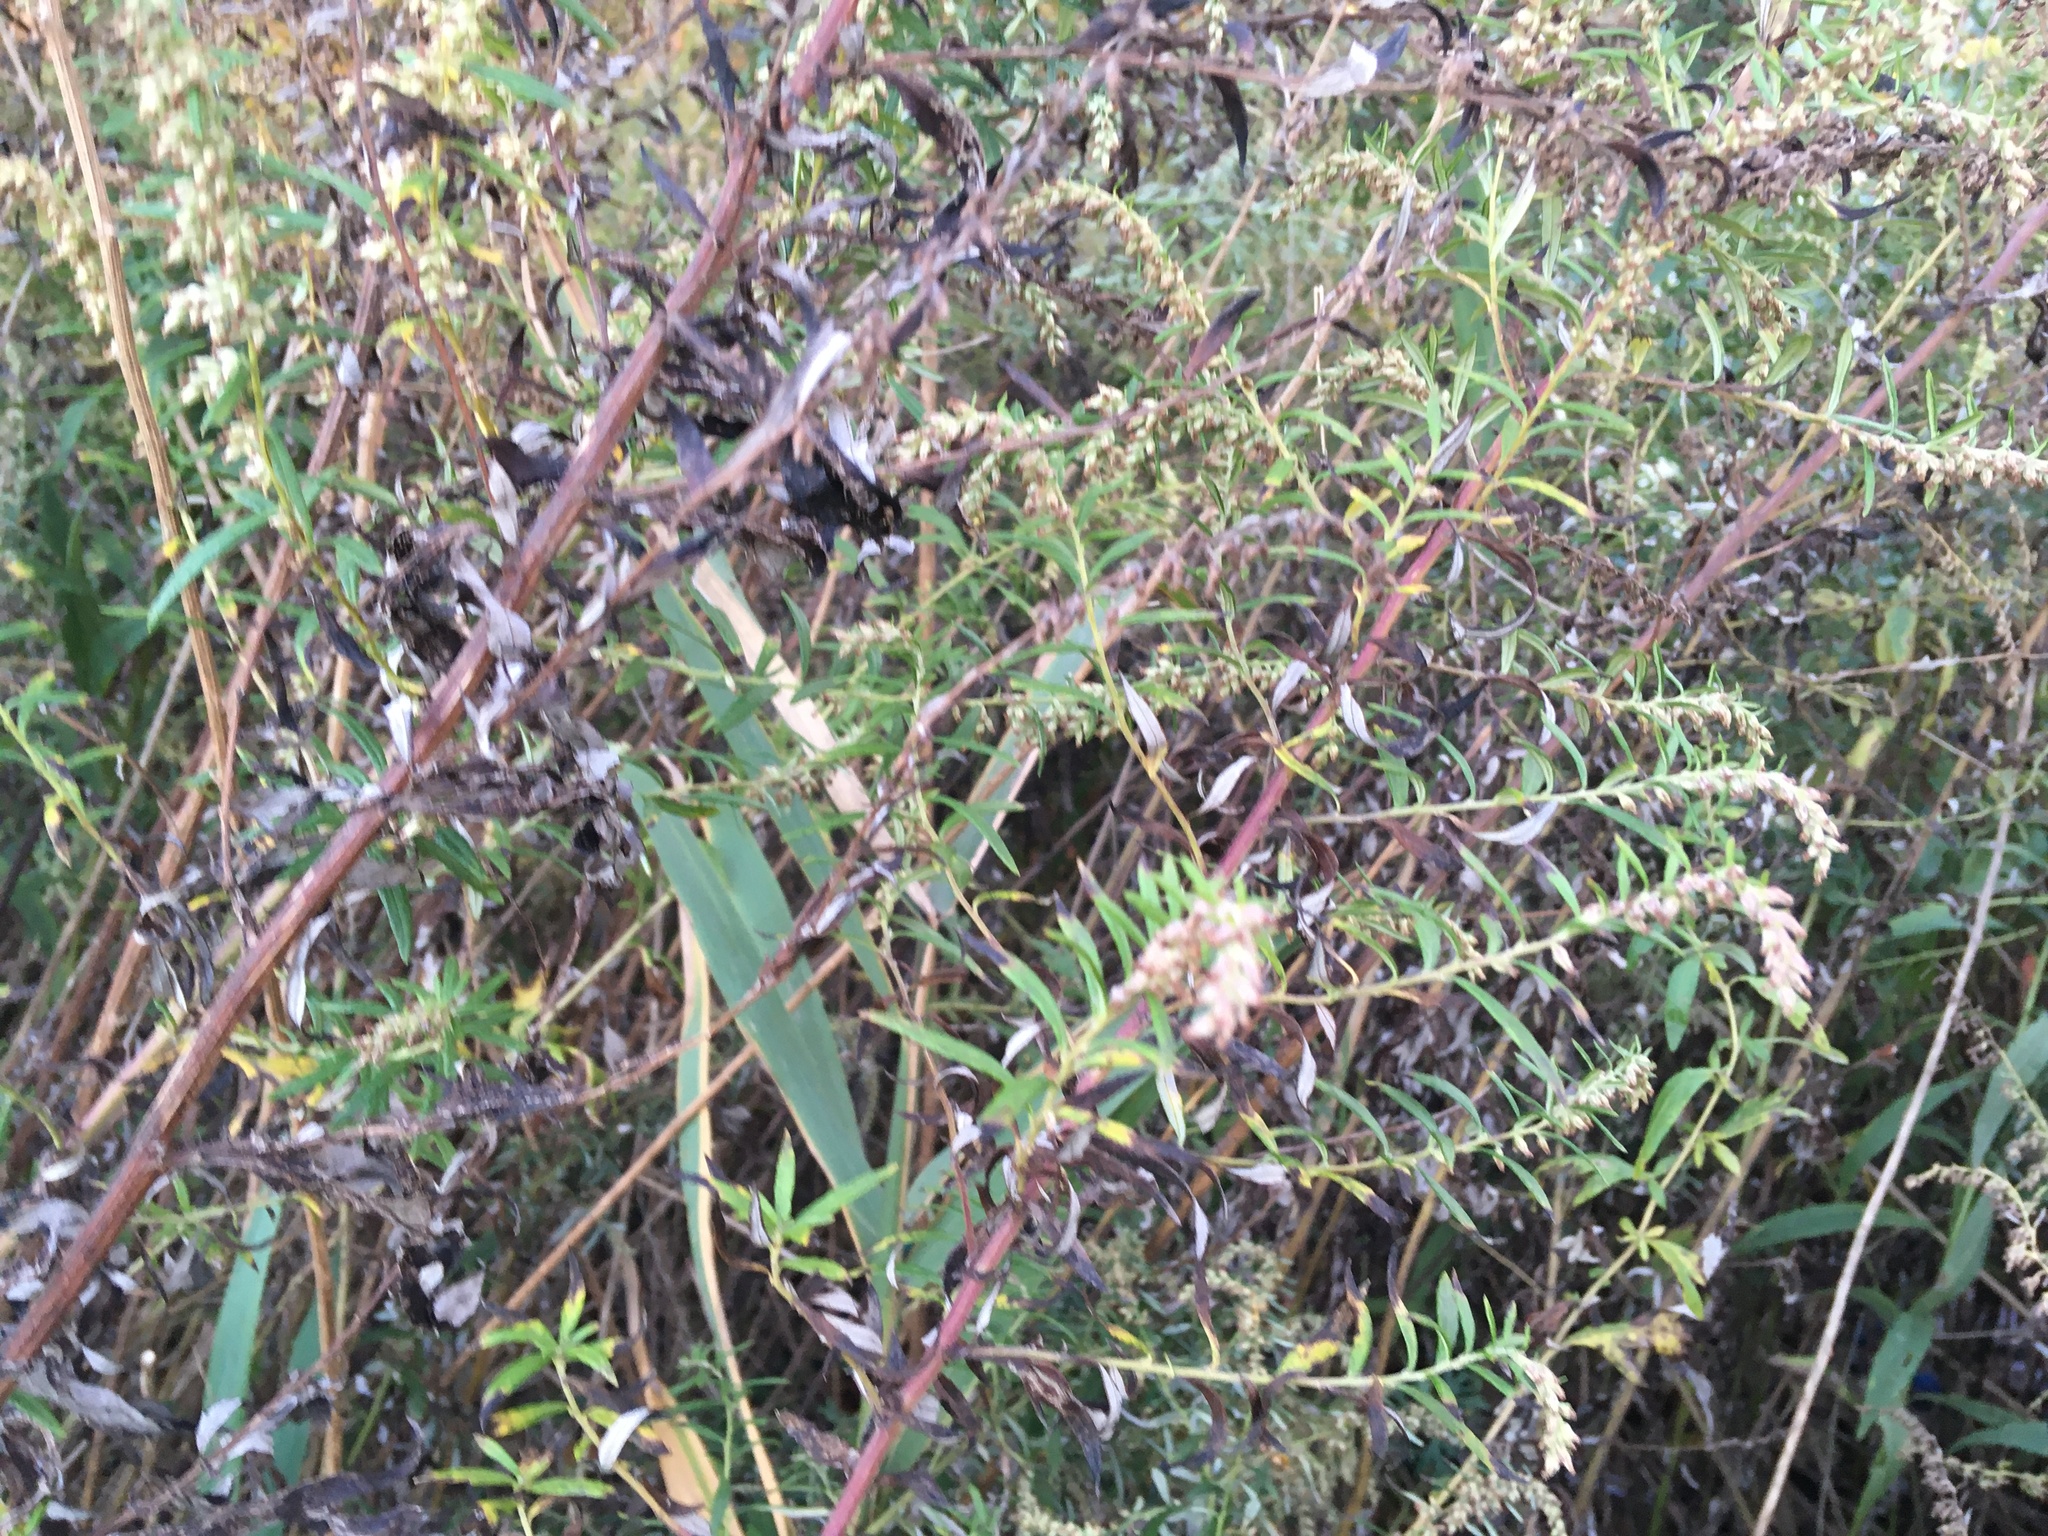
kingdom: Plantae
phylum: Tracheophyta
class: Magnoliopsida
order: Asterales
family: Asteraceae
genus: Artemisia
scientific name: Artemisia vulgaris
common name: Mugwort
